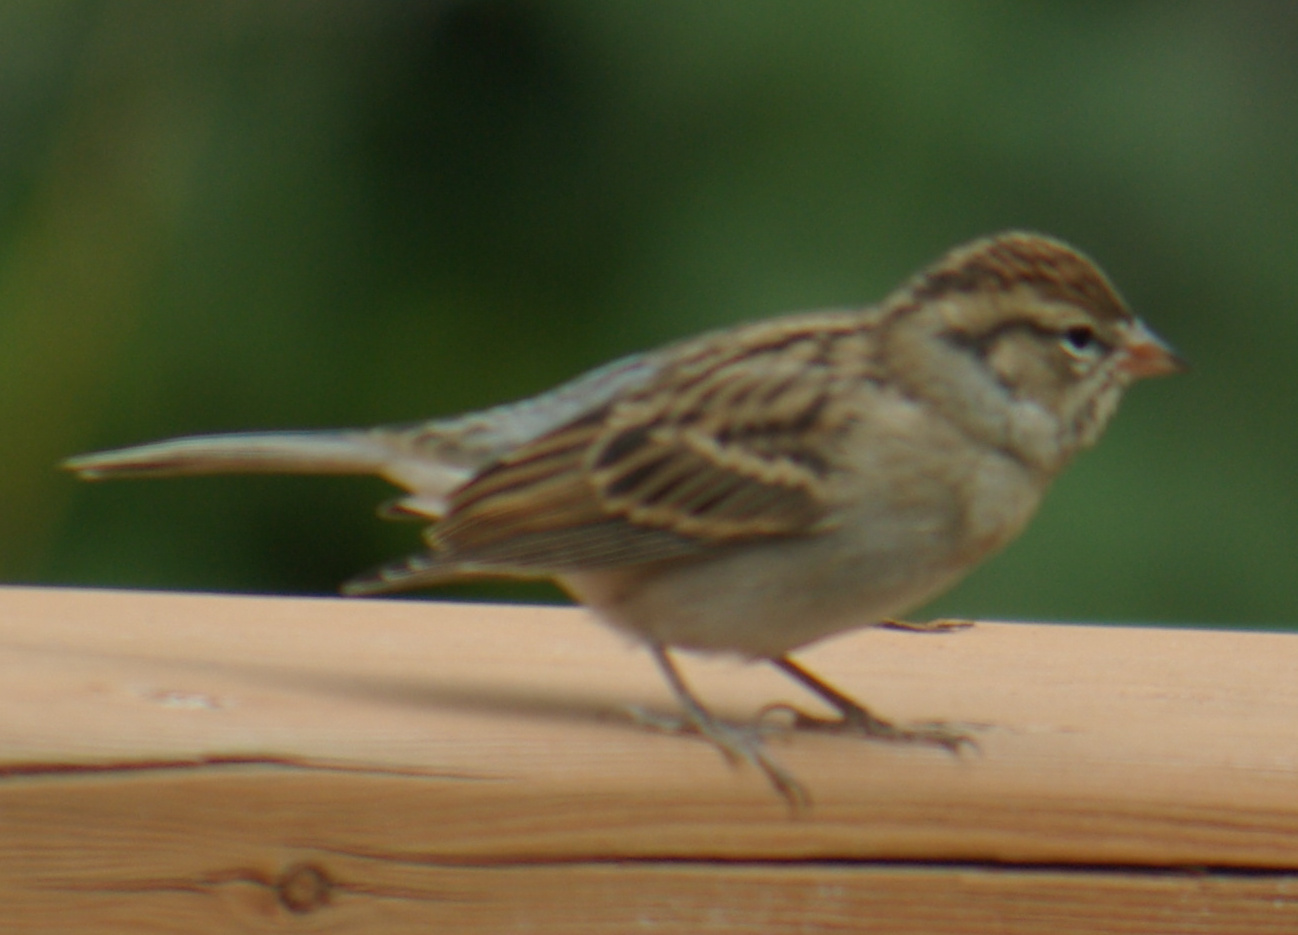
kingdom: Animalia
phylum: Chordata
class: Aves
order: Passeriformes
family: Passerellidae
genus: Spizella
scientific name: Spizella passerina
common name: Chipping sparrow
